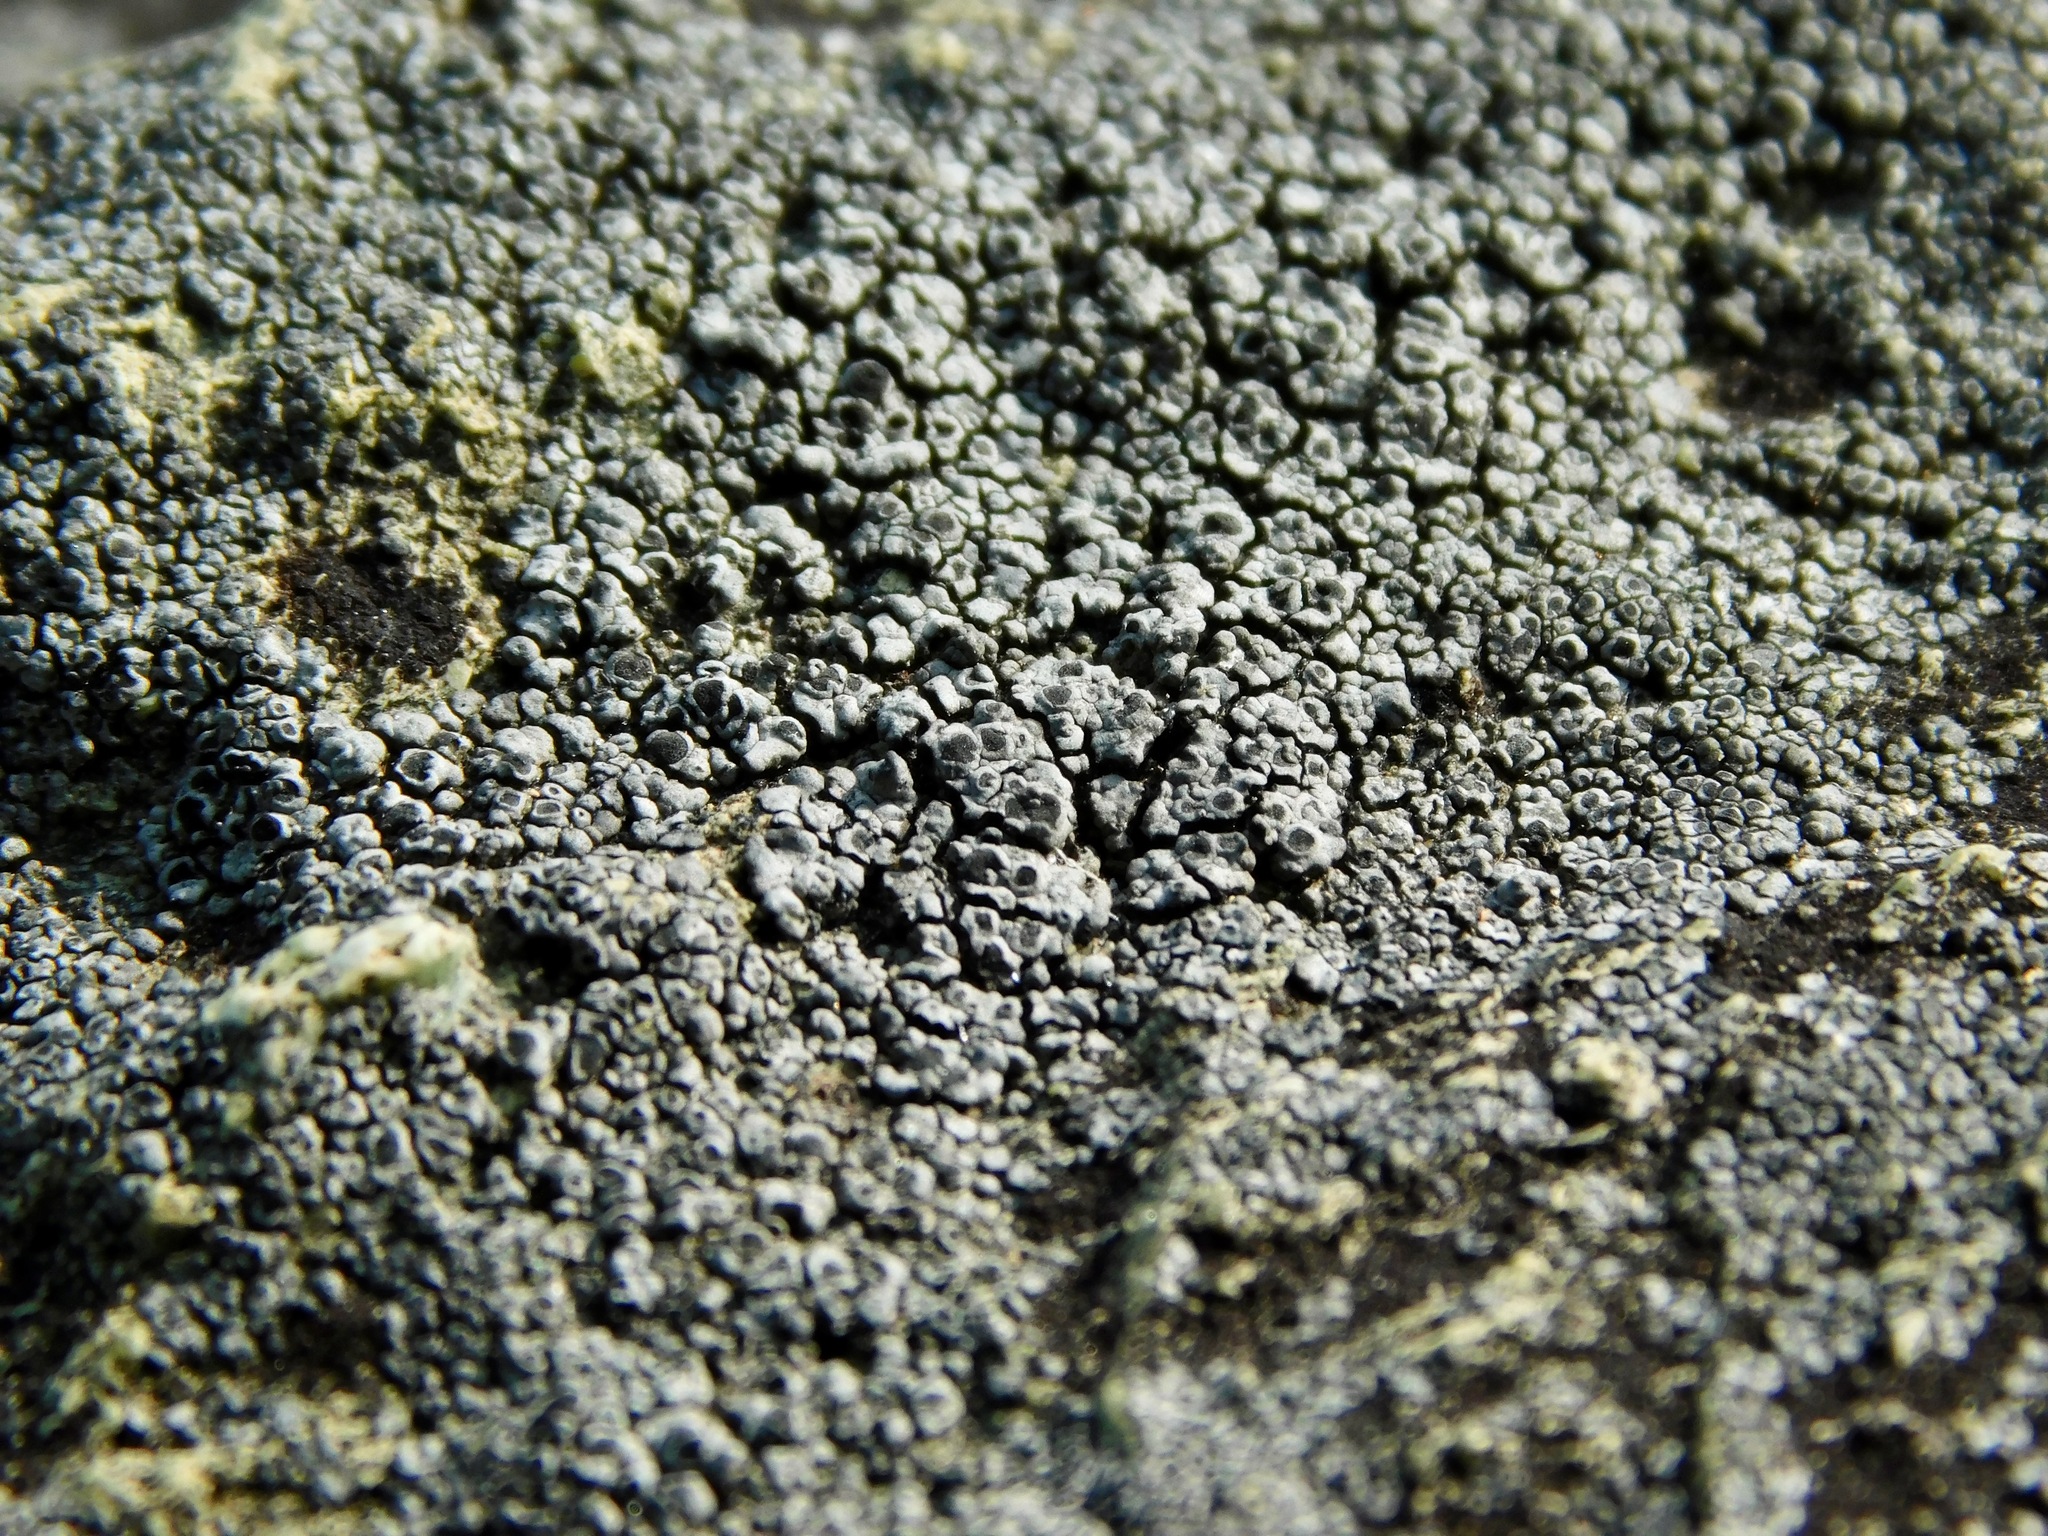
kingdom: Fungi
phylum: Ascomycota
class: Lecanoromycetes
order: Pertusariales
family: Megasporaceae
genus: Aspicilia
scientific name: Aspicilia verrucigera
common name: Warty sunken disk lichen
